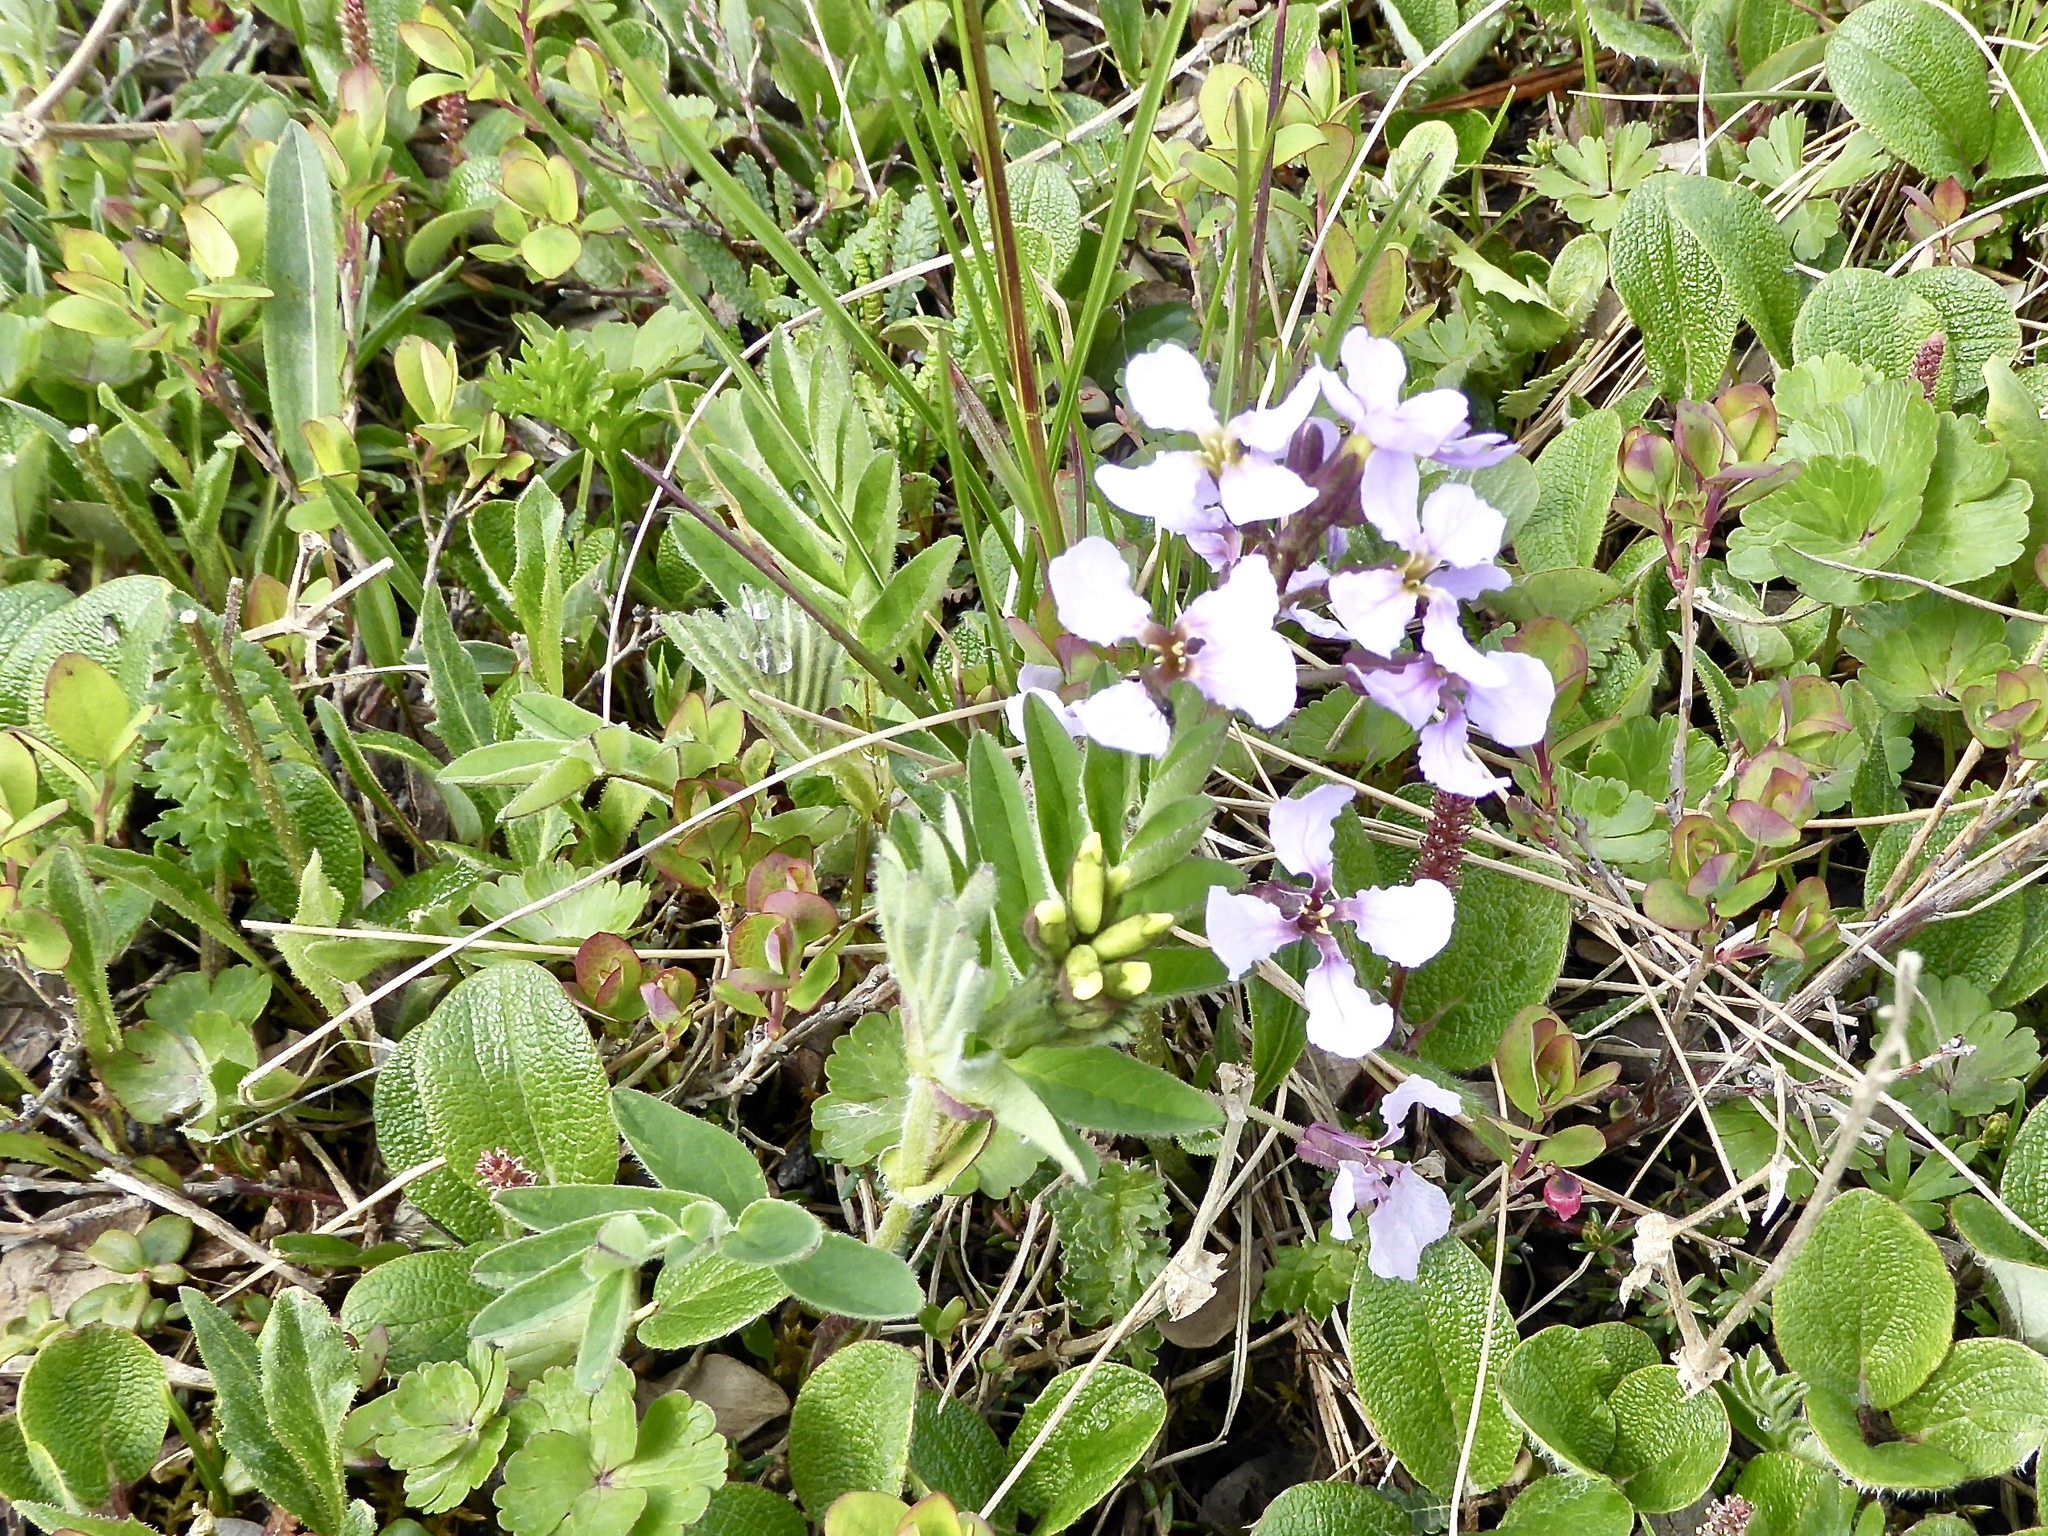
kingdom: Plantae
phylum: Tracheophyta
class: Magnoliopsida
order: Brassicales
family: Brassicaceae
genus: Parrya
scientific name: Parrya nudicaulis
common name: Naked-stemmed false wallflower
